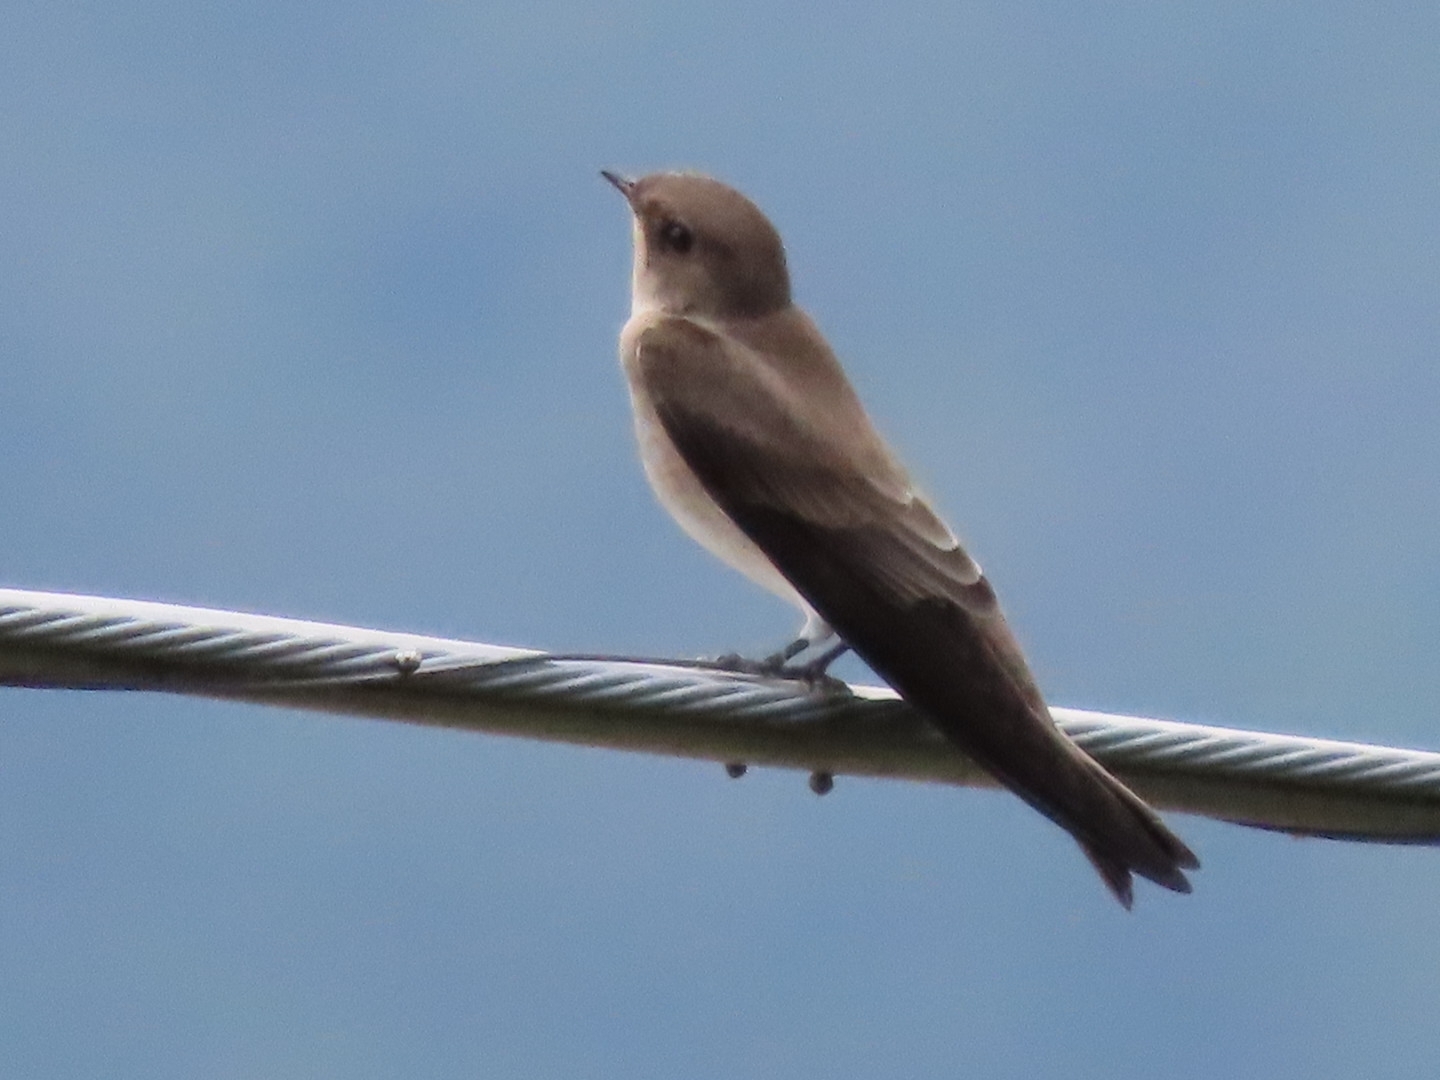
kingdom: Animalia
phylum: Chordata
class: Aves
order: Passeriformes
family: Hirundinidae
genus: Stelgidopteryx
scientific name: Stelgidopteryx serripennis
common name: Northern rough-winged swallow
